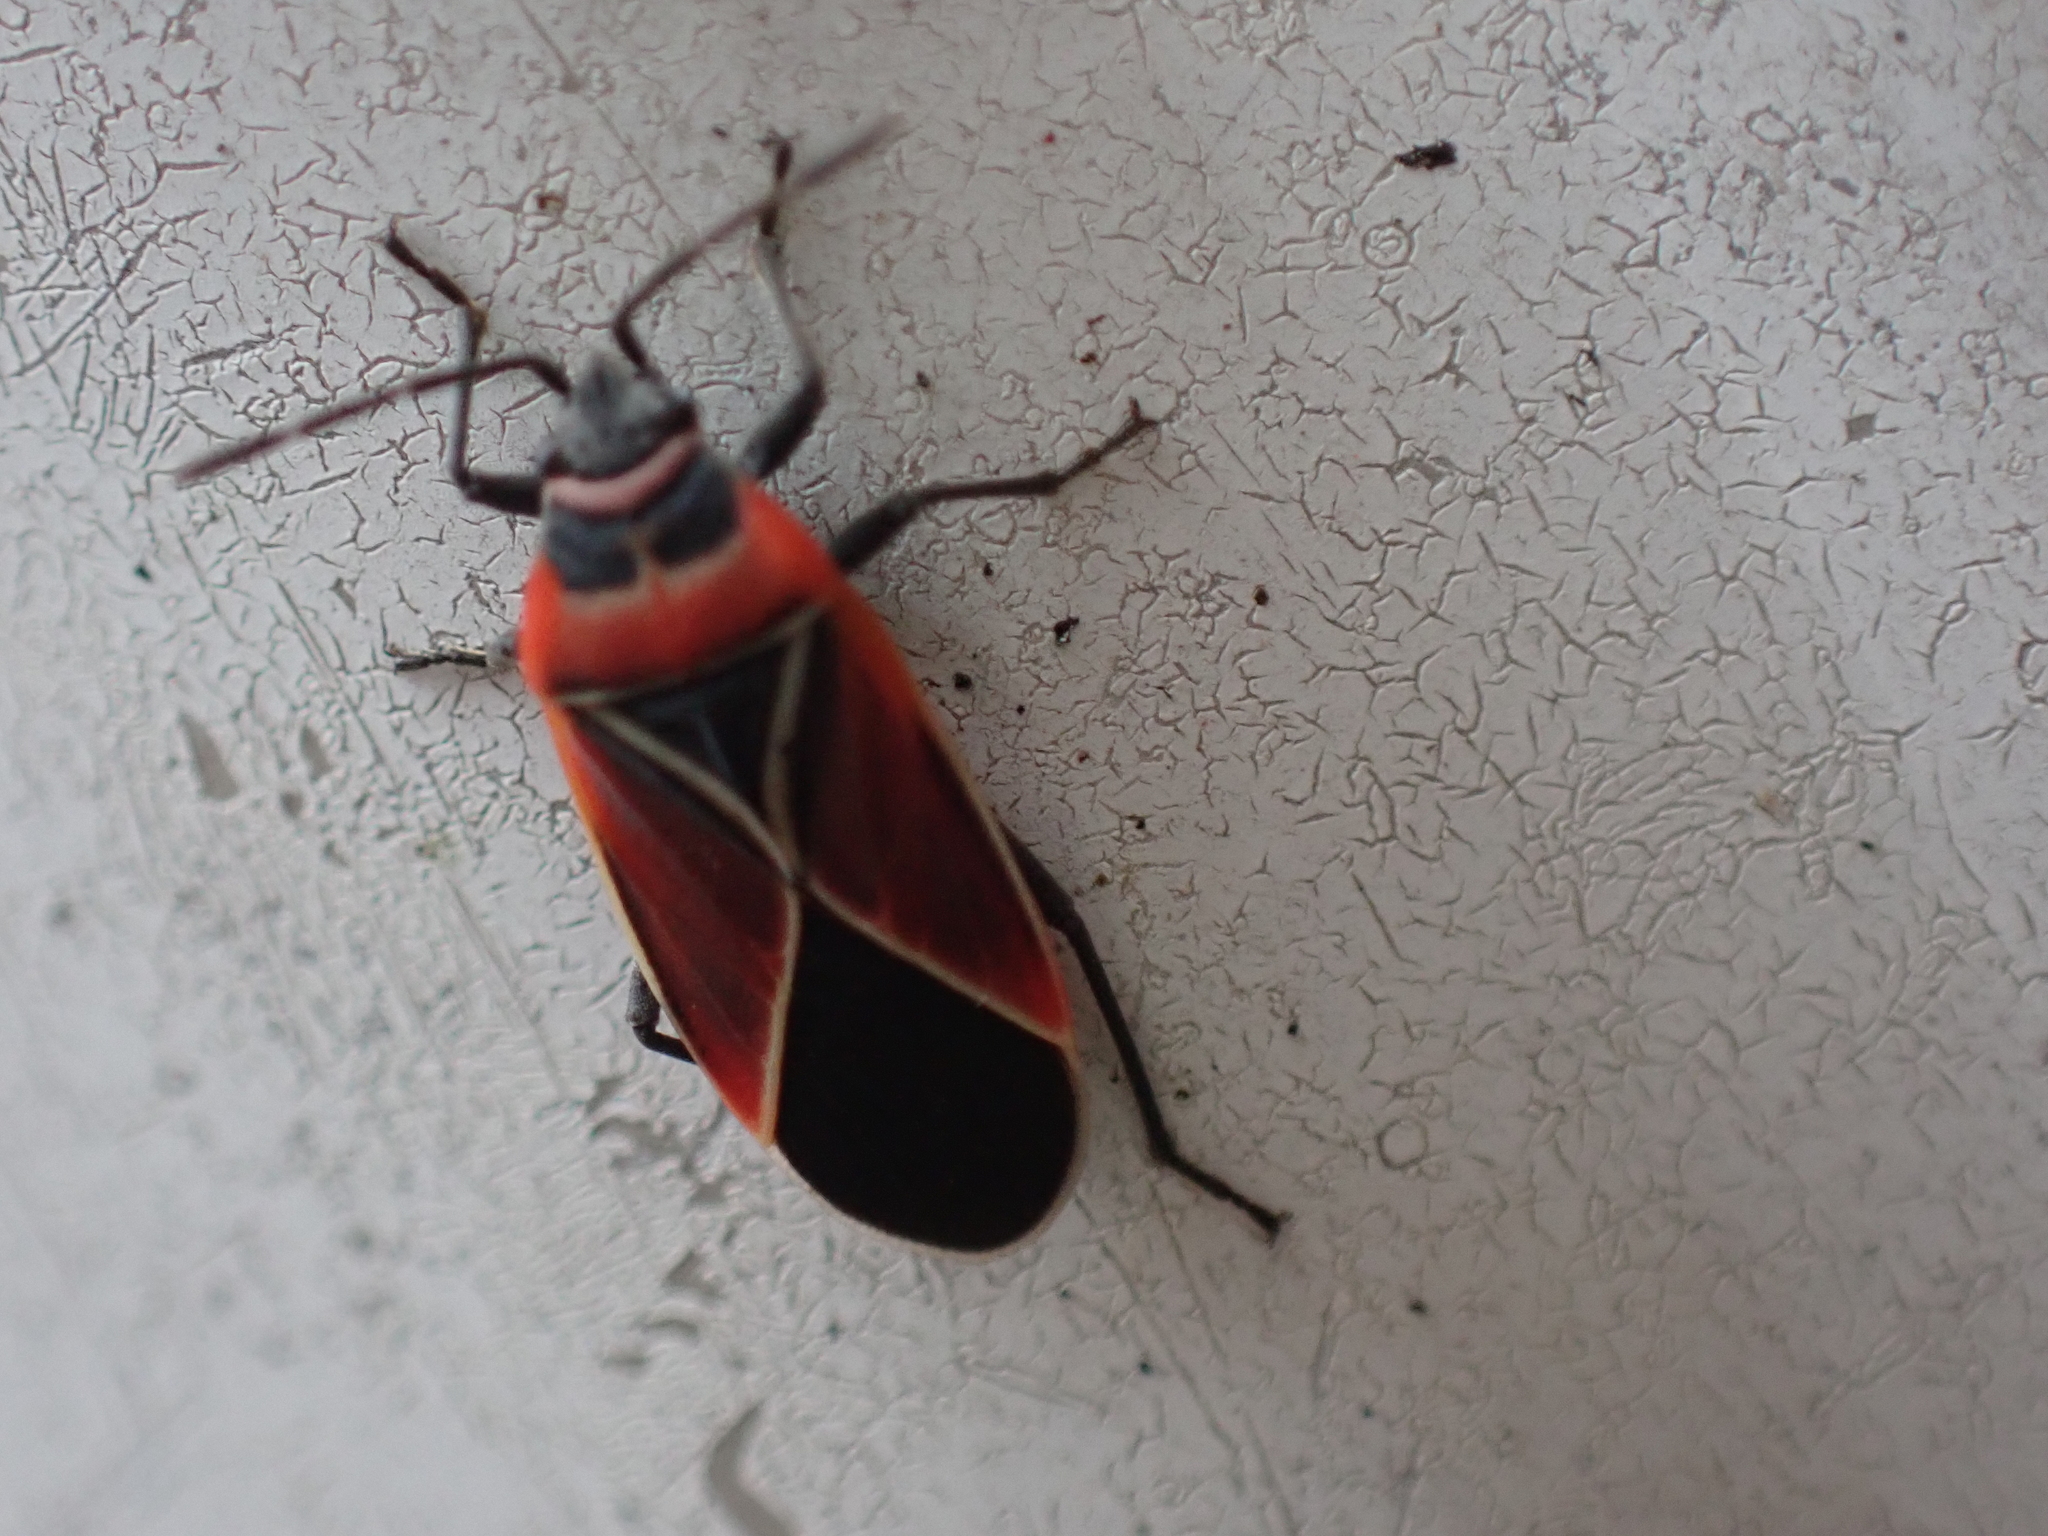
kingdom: Animalia
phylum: Arthropoda
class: Insecta
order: Hemiptera
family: Lygaeidae
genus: Neacoryphus
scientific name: Neacoryphus bicrucis
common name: Lygaeid bug
